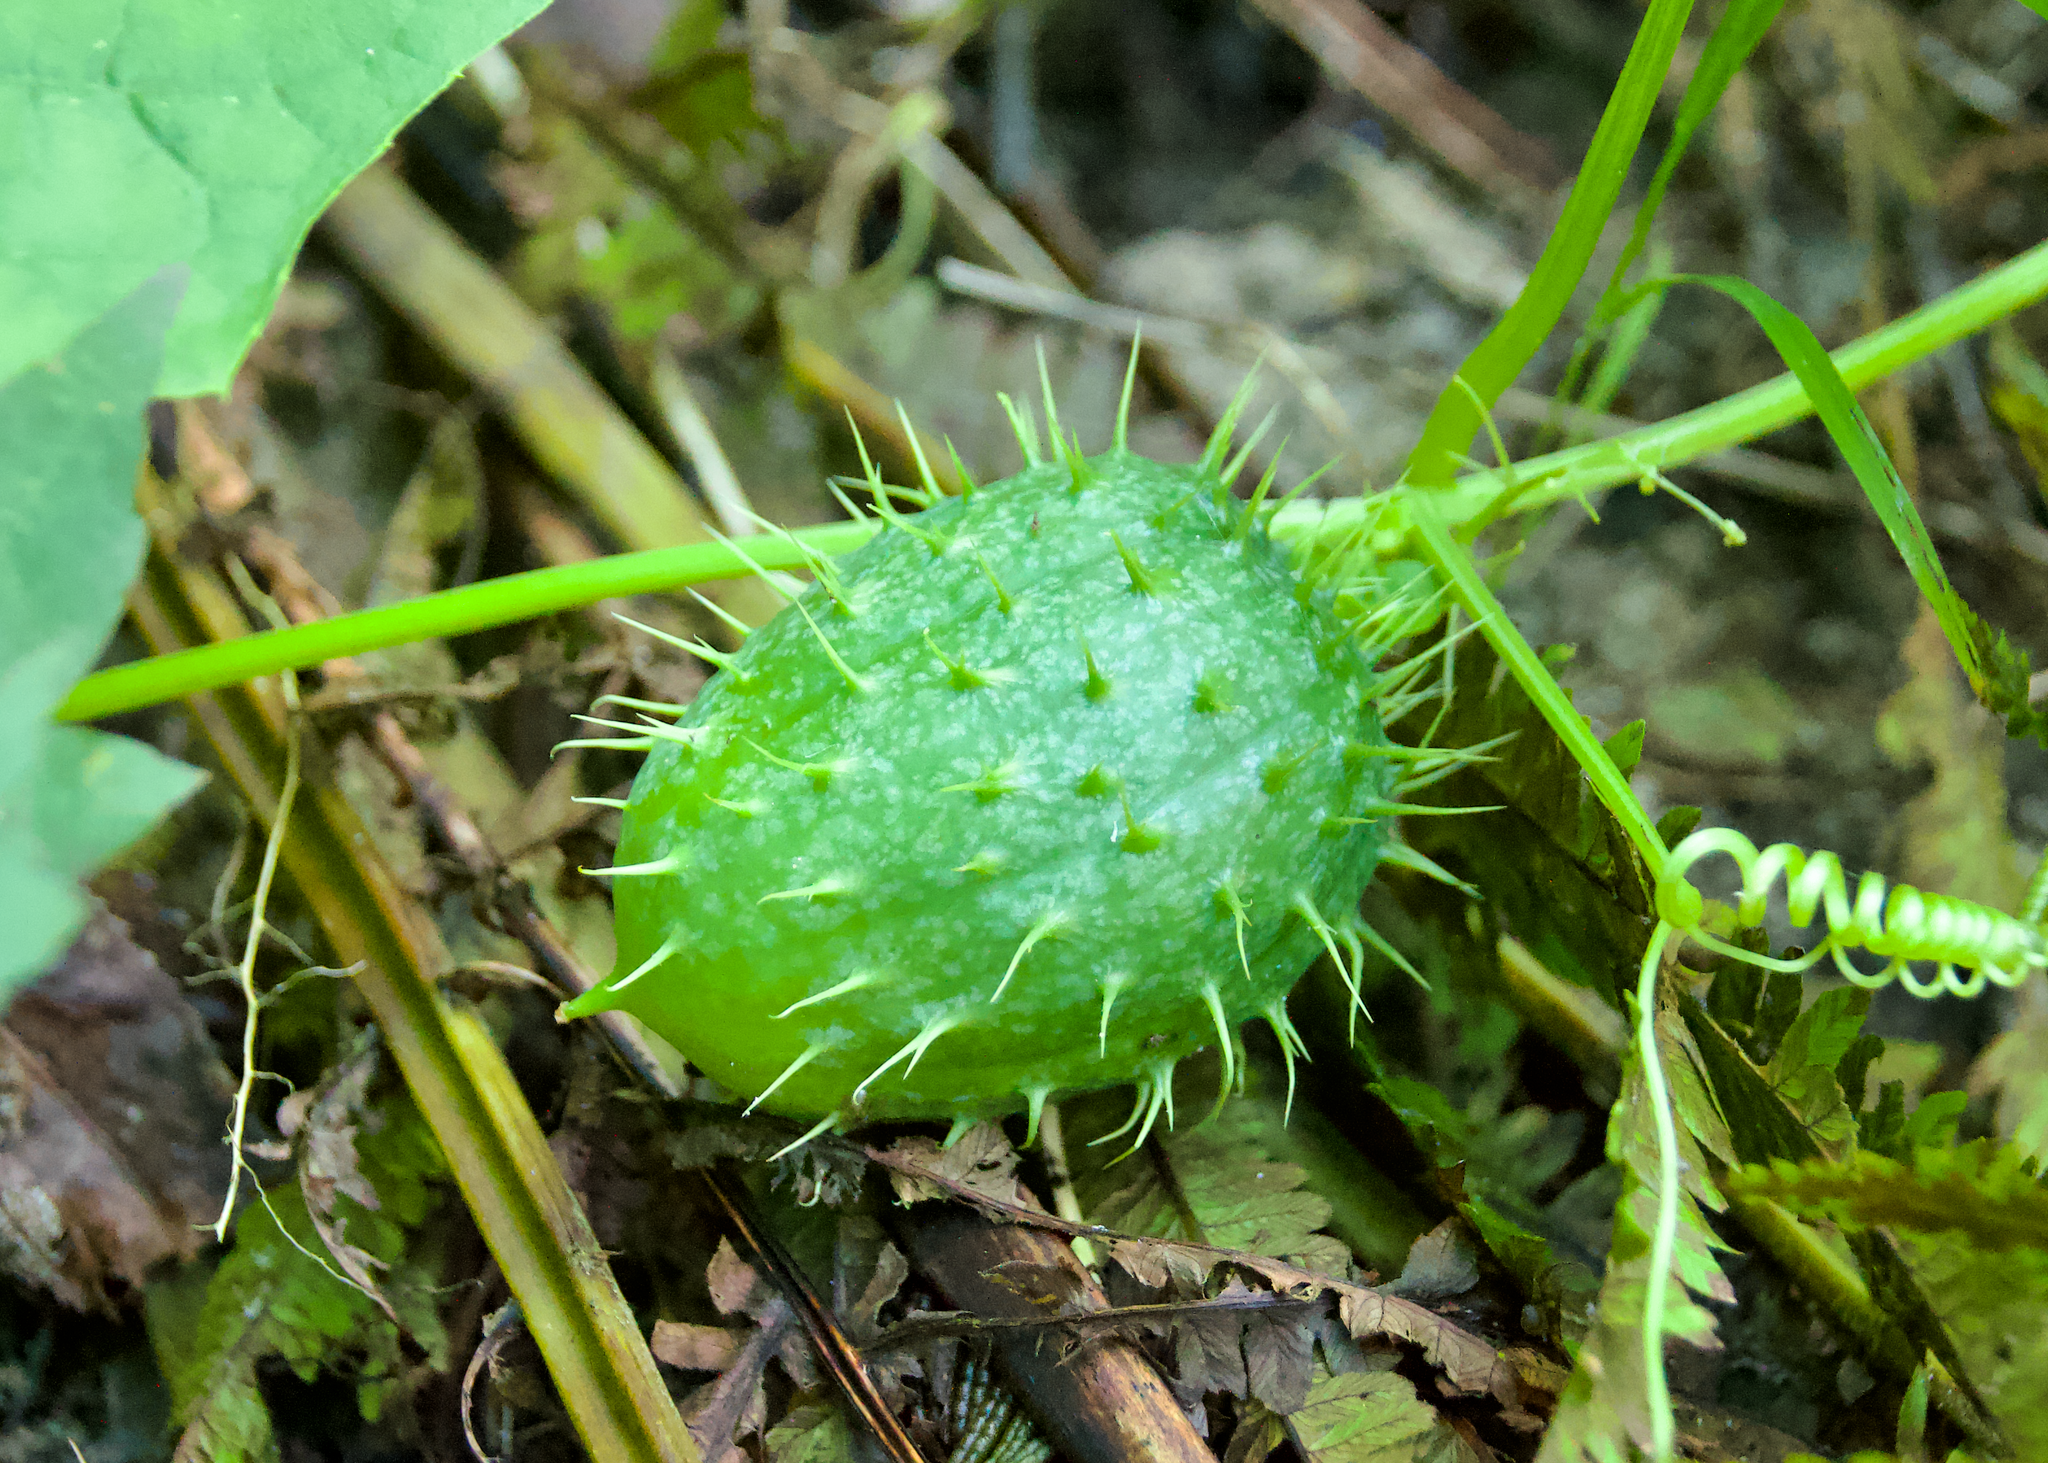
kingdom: Plantae
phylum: Tracheophyta
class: Magnoliopsida
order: Cucurbitales
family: Cucurbitaceae
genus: Echinocystis
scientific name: Echinocystis lobata
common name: Wild cucumber
